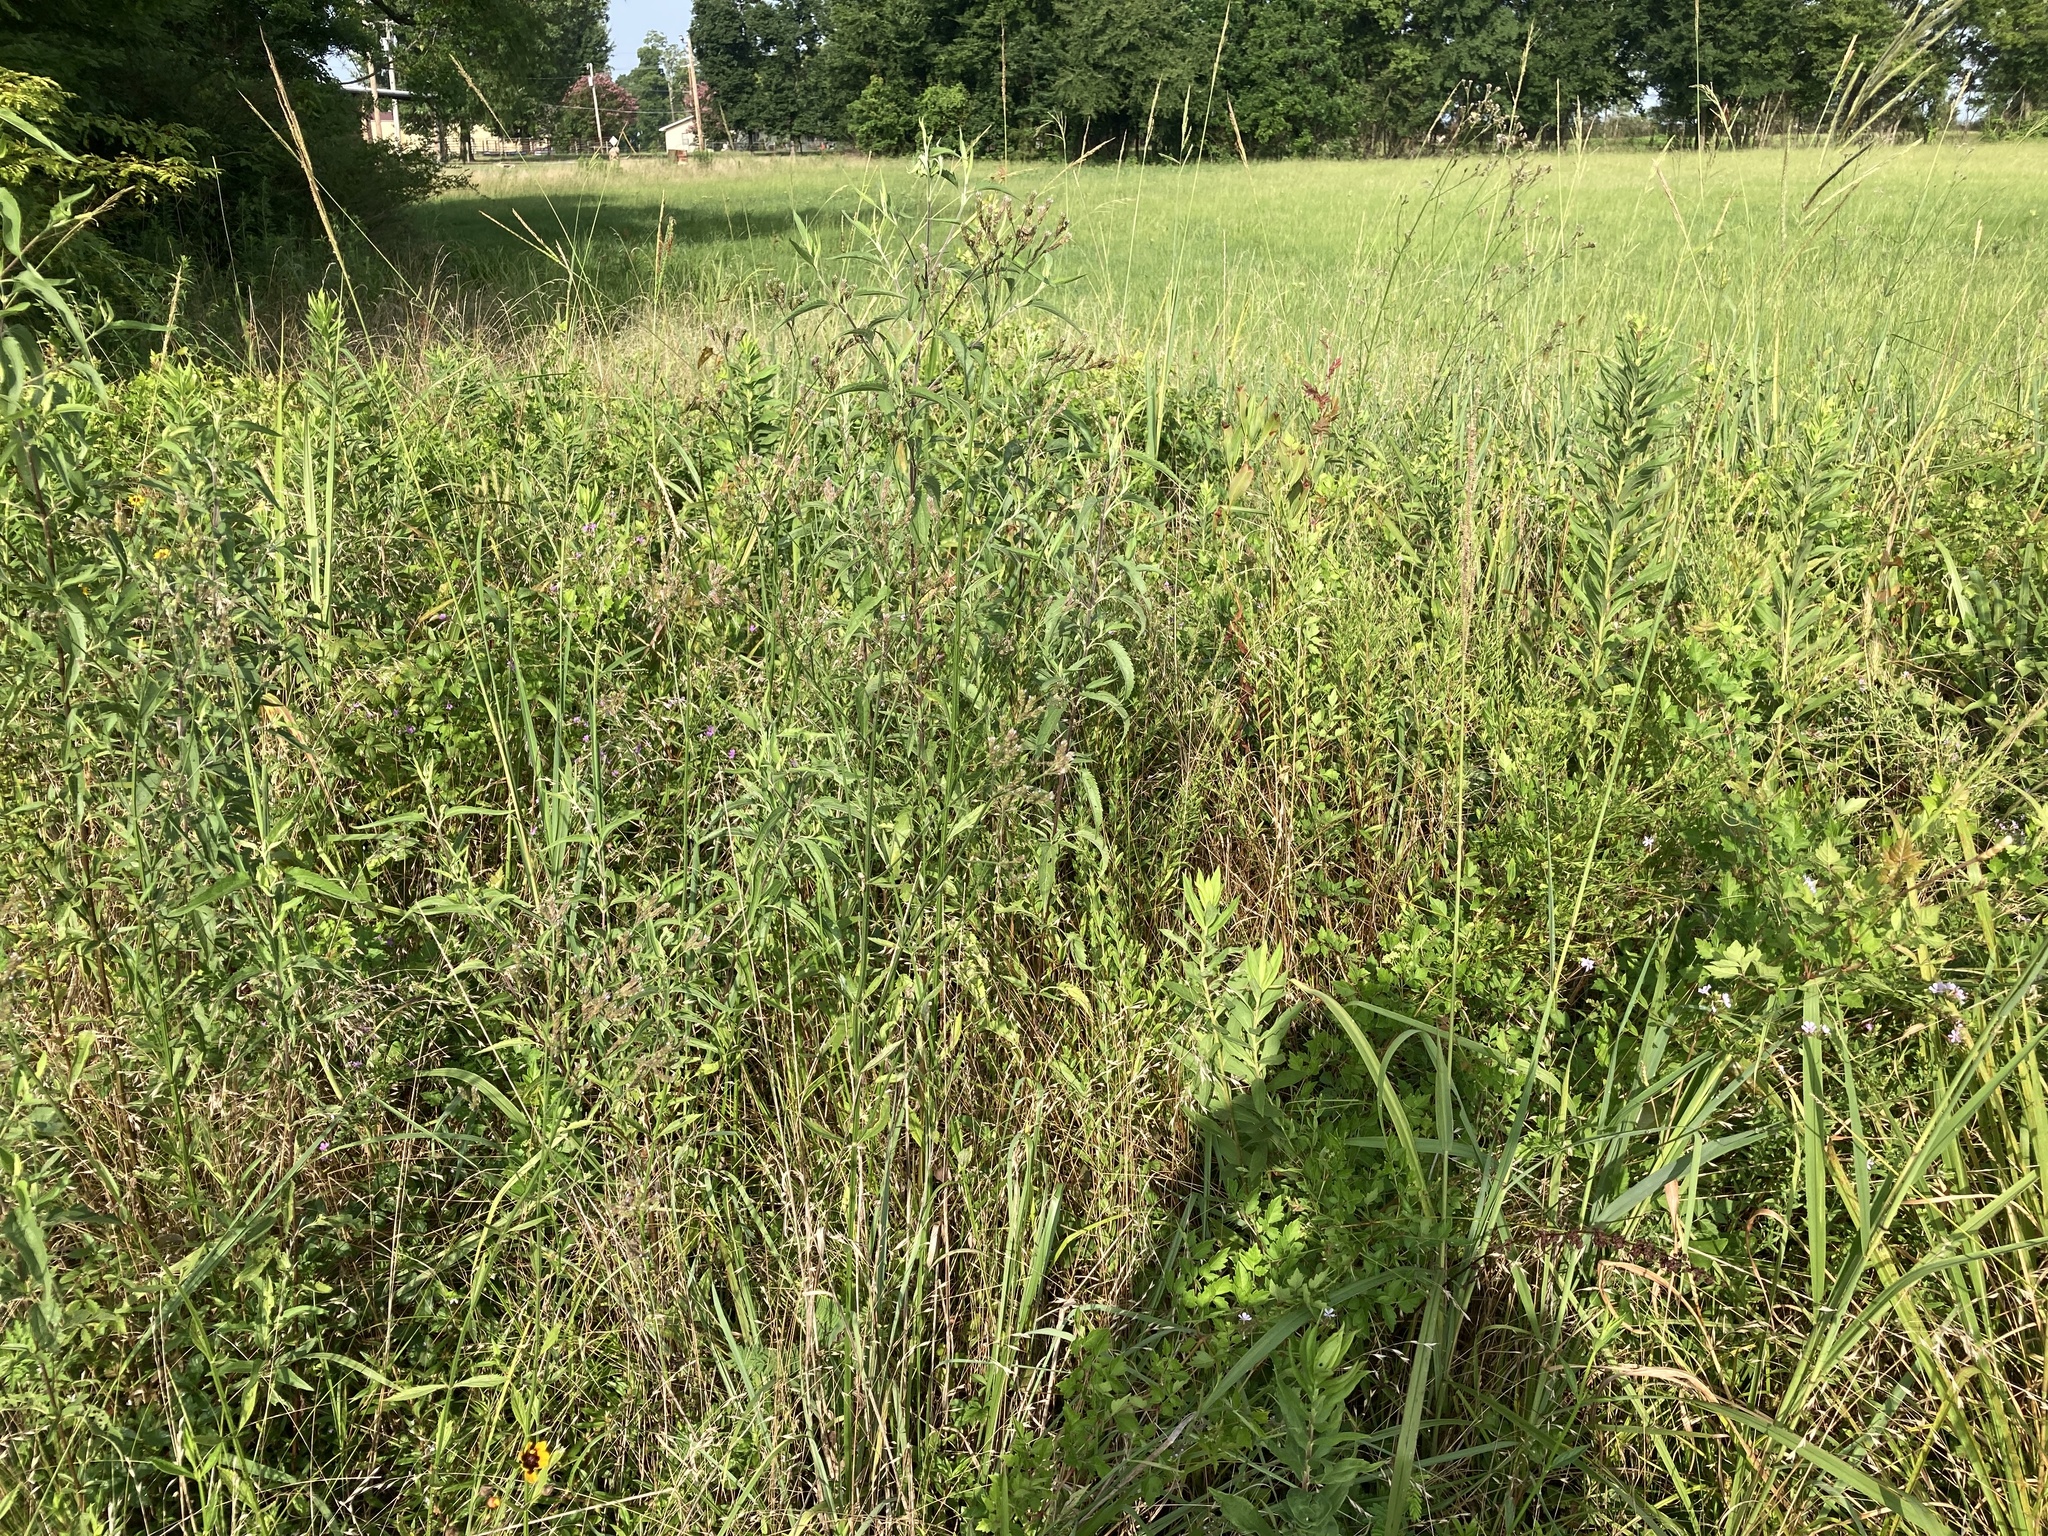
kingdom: Plantae
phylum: Tracheophyta
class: Magnoliopsida
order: Myrtales
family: Lythraceae
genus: Lythrum
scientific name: Lythrum alatum
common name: Winged loosestrife
